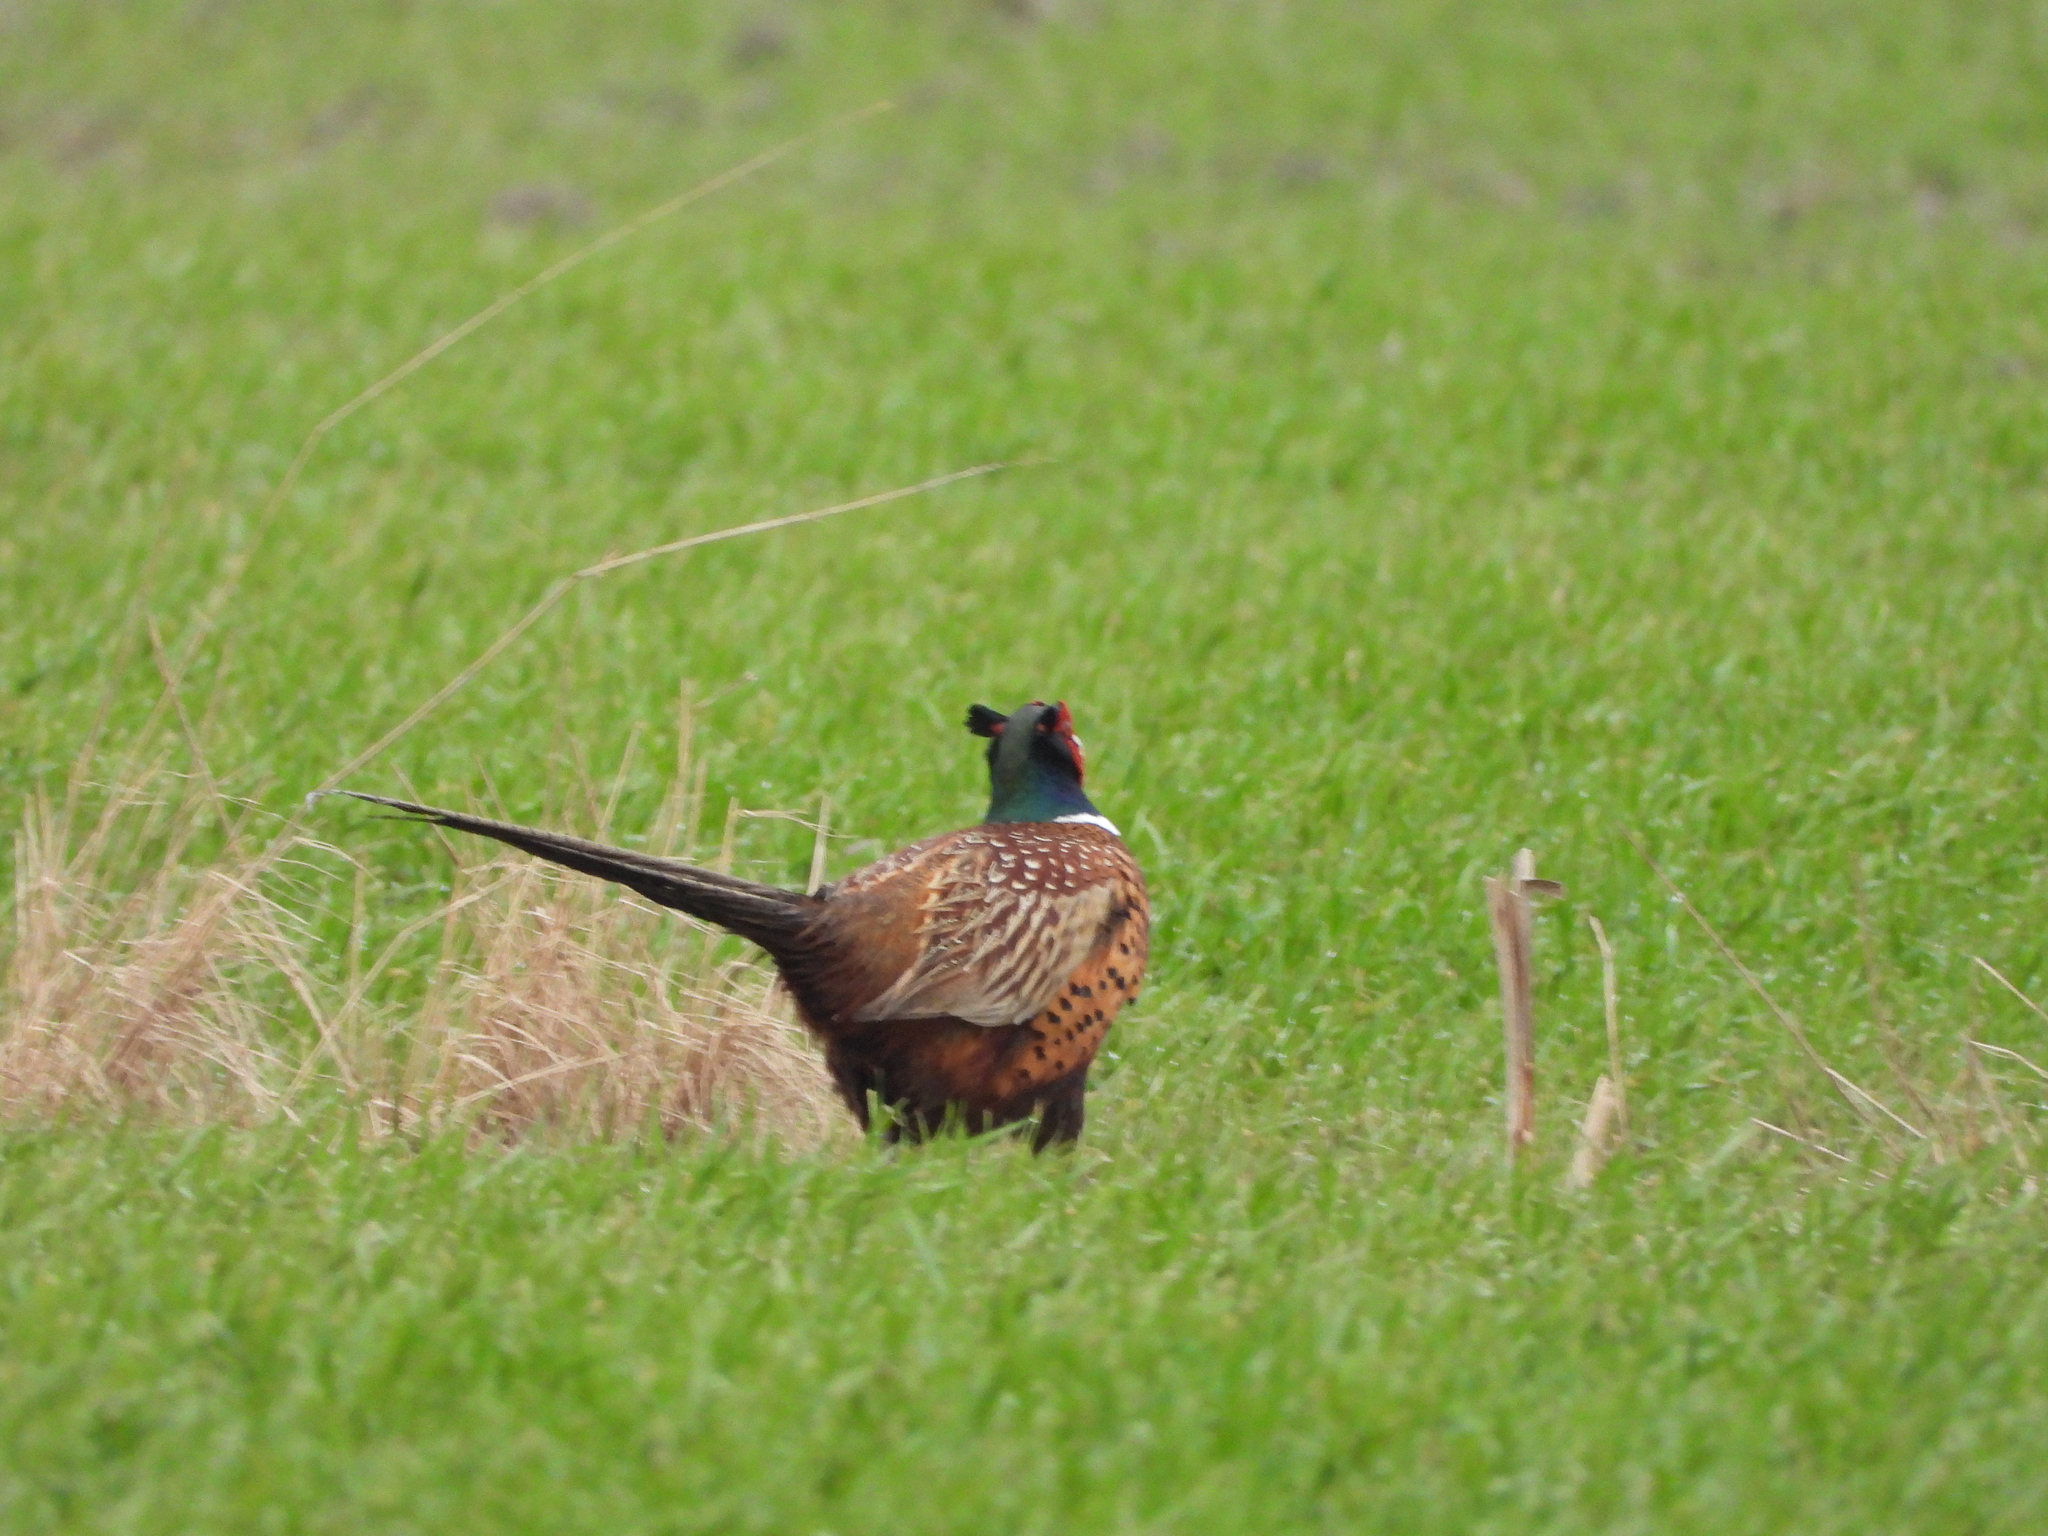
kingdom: Animalia
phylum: Chordata
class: Aves
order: Galliformes
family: Phasianidae
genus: Phasianus
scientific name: Phasianus colchicus
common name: Common pheasant
